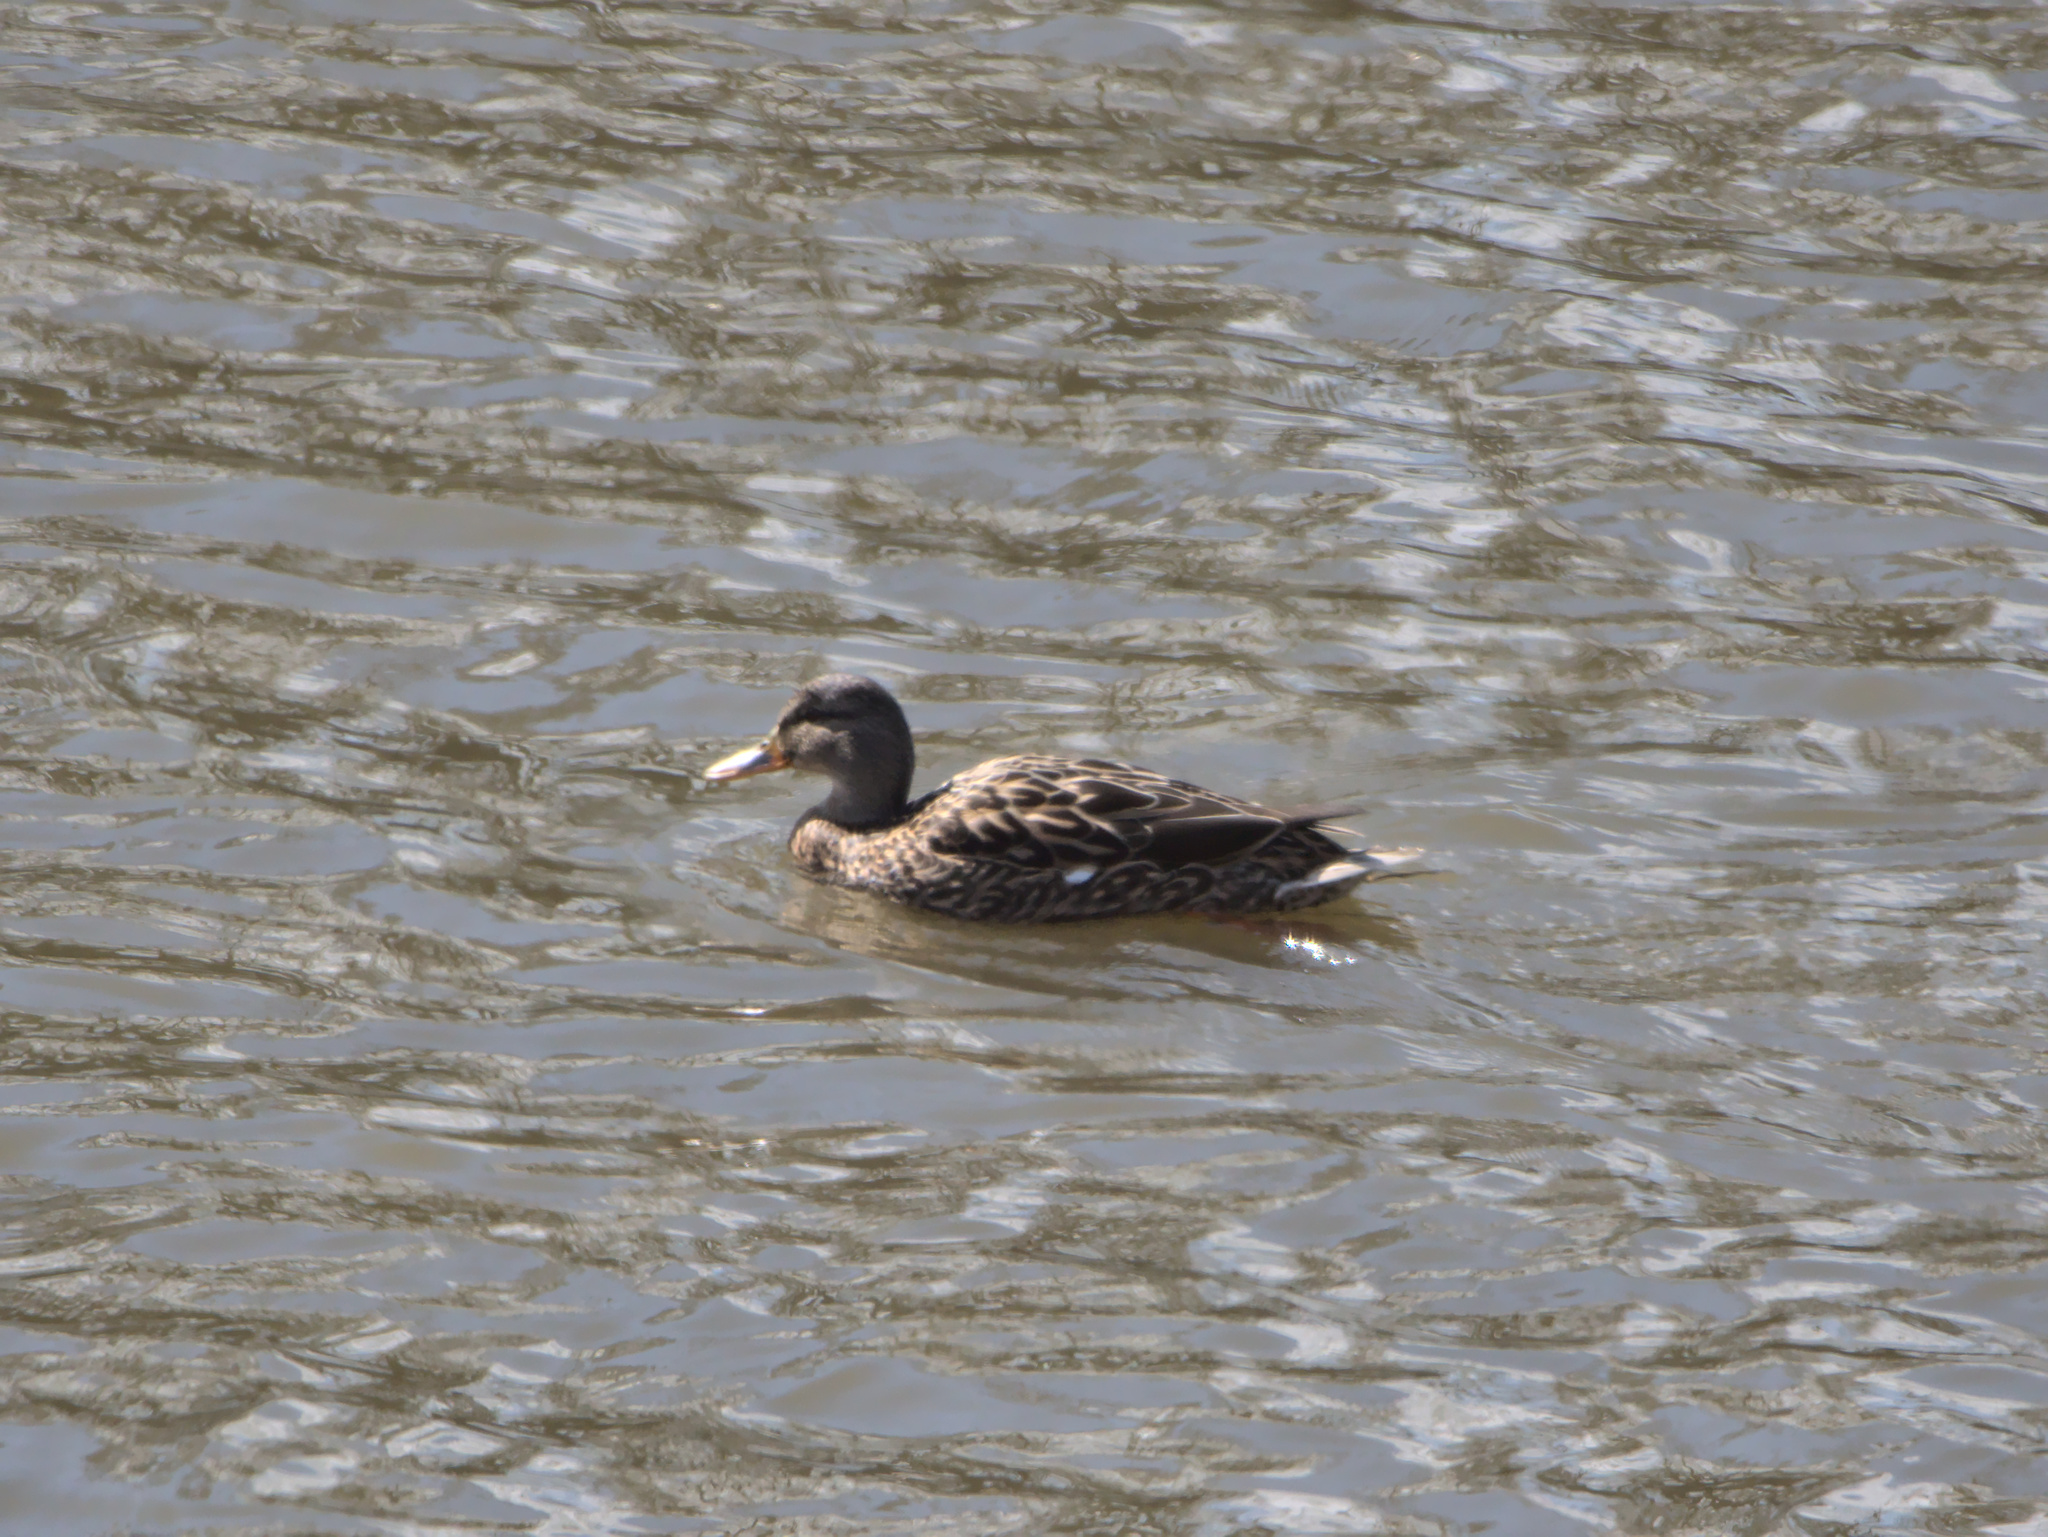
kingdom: Animalia
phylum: Chordata
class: Aves
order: Anseriformes
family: Anatidae
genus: Anas
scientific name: Anas platyrhynchos
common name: Mallard
